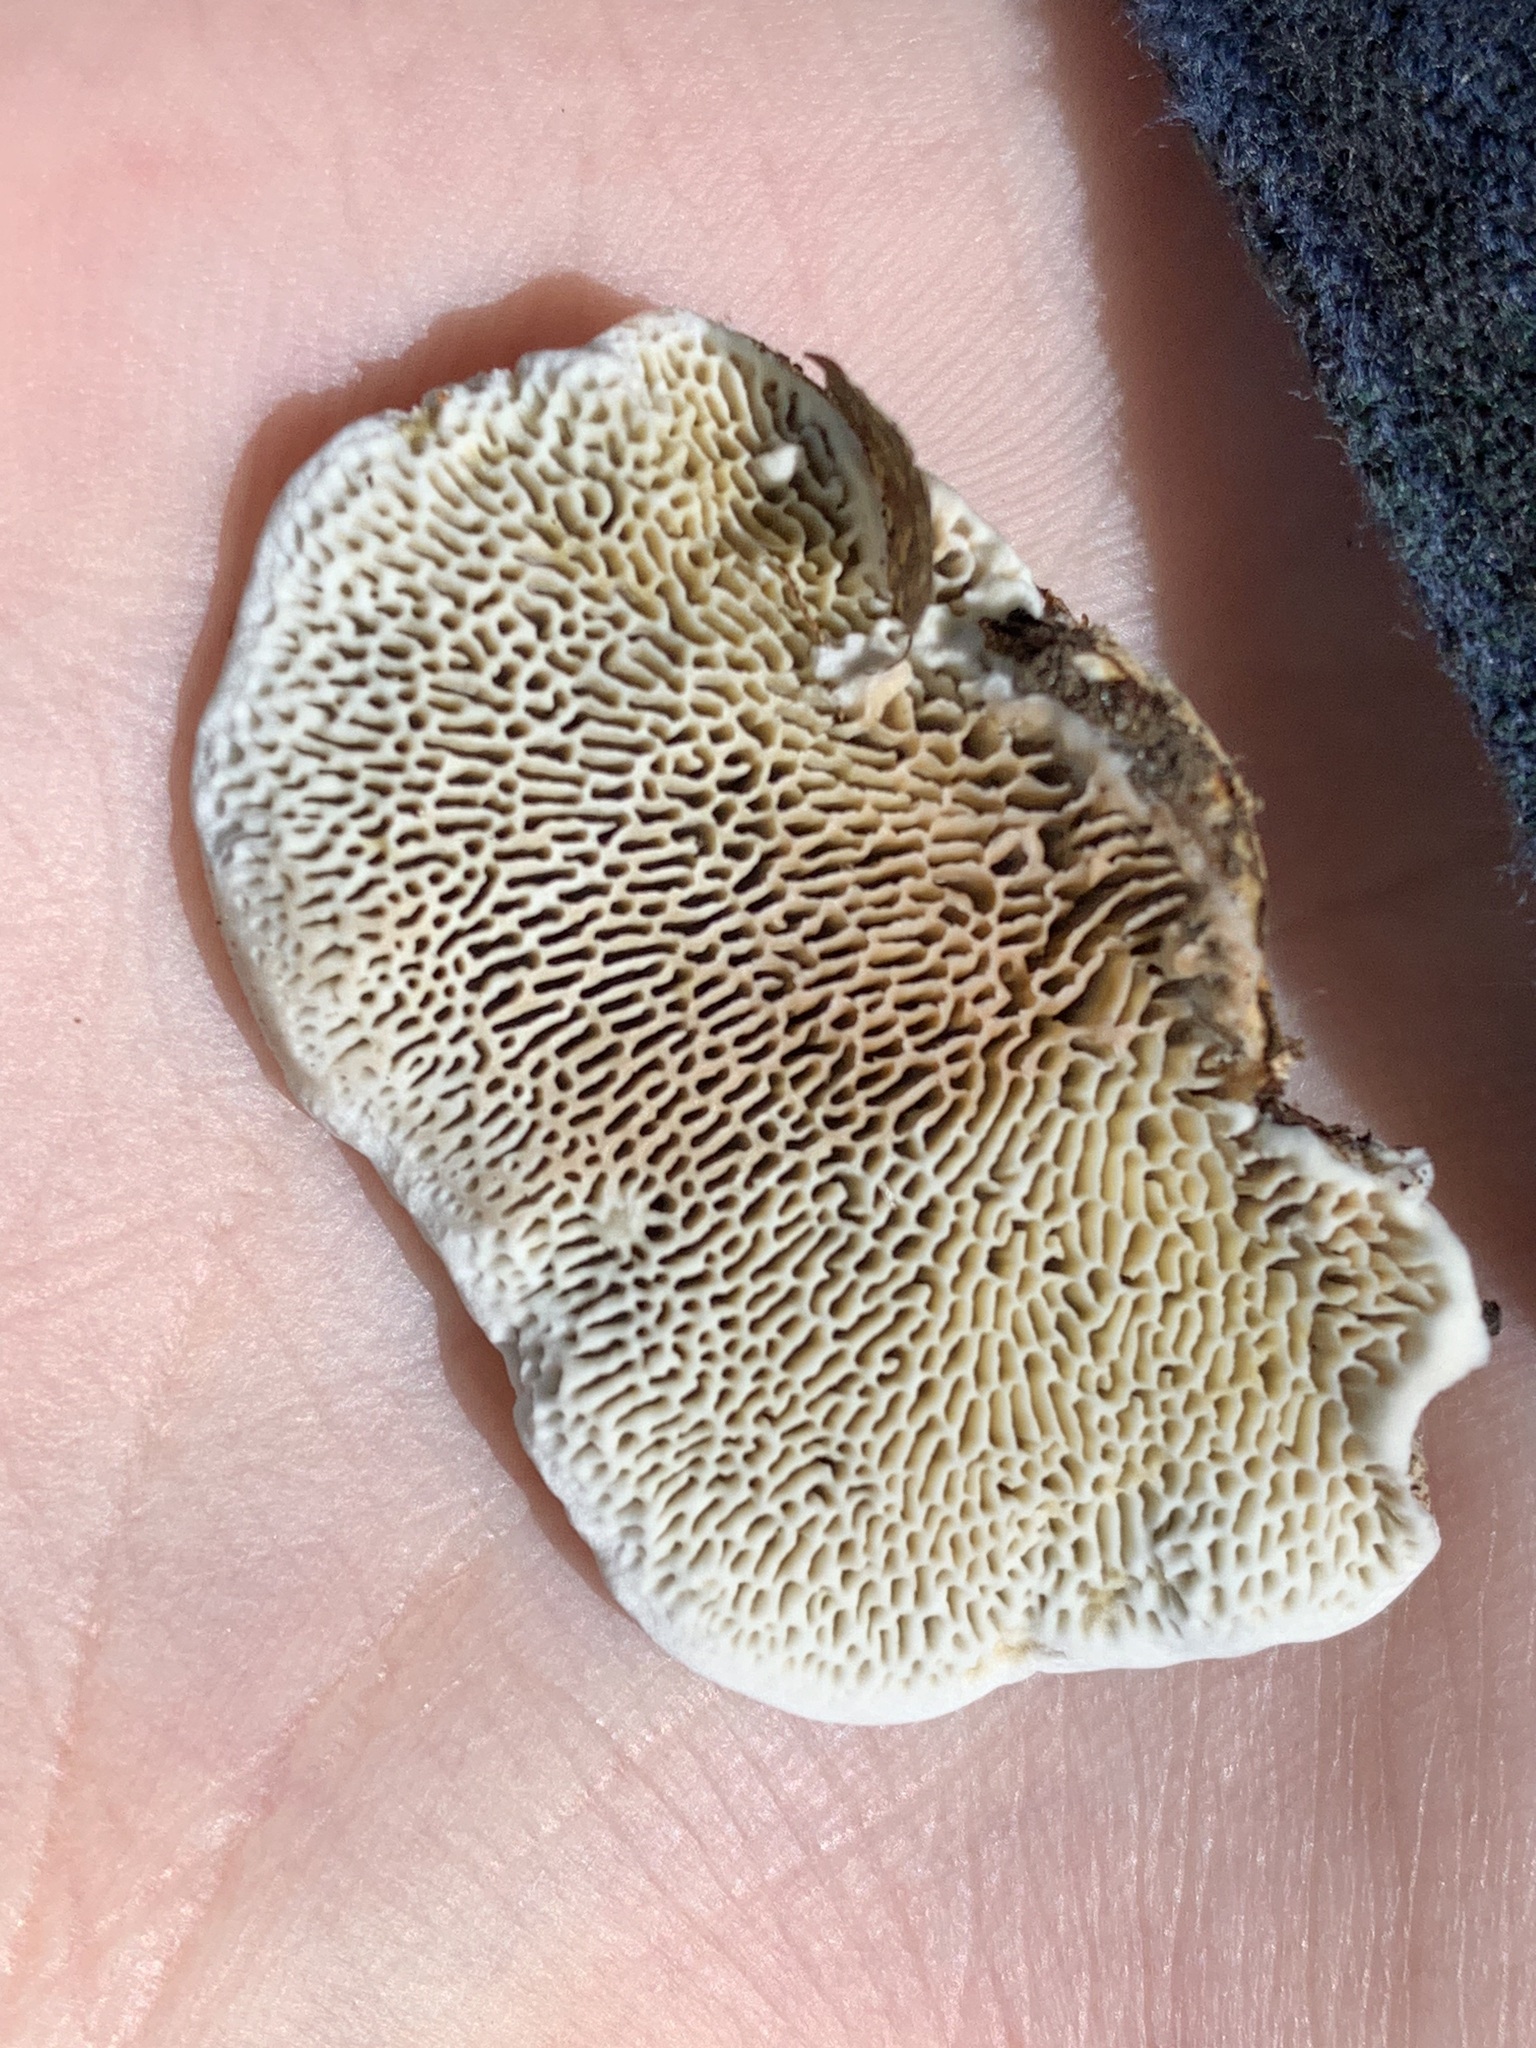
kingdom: Fungi
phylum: Basidiomycota
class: Agaricomycetes
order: Polyporales
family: Polyporaceae
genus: Daedaleopsis
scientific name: Daedaleopsis confragosa
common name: Blushing bracket
